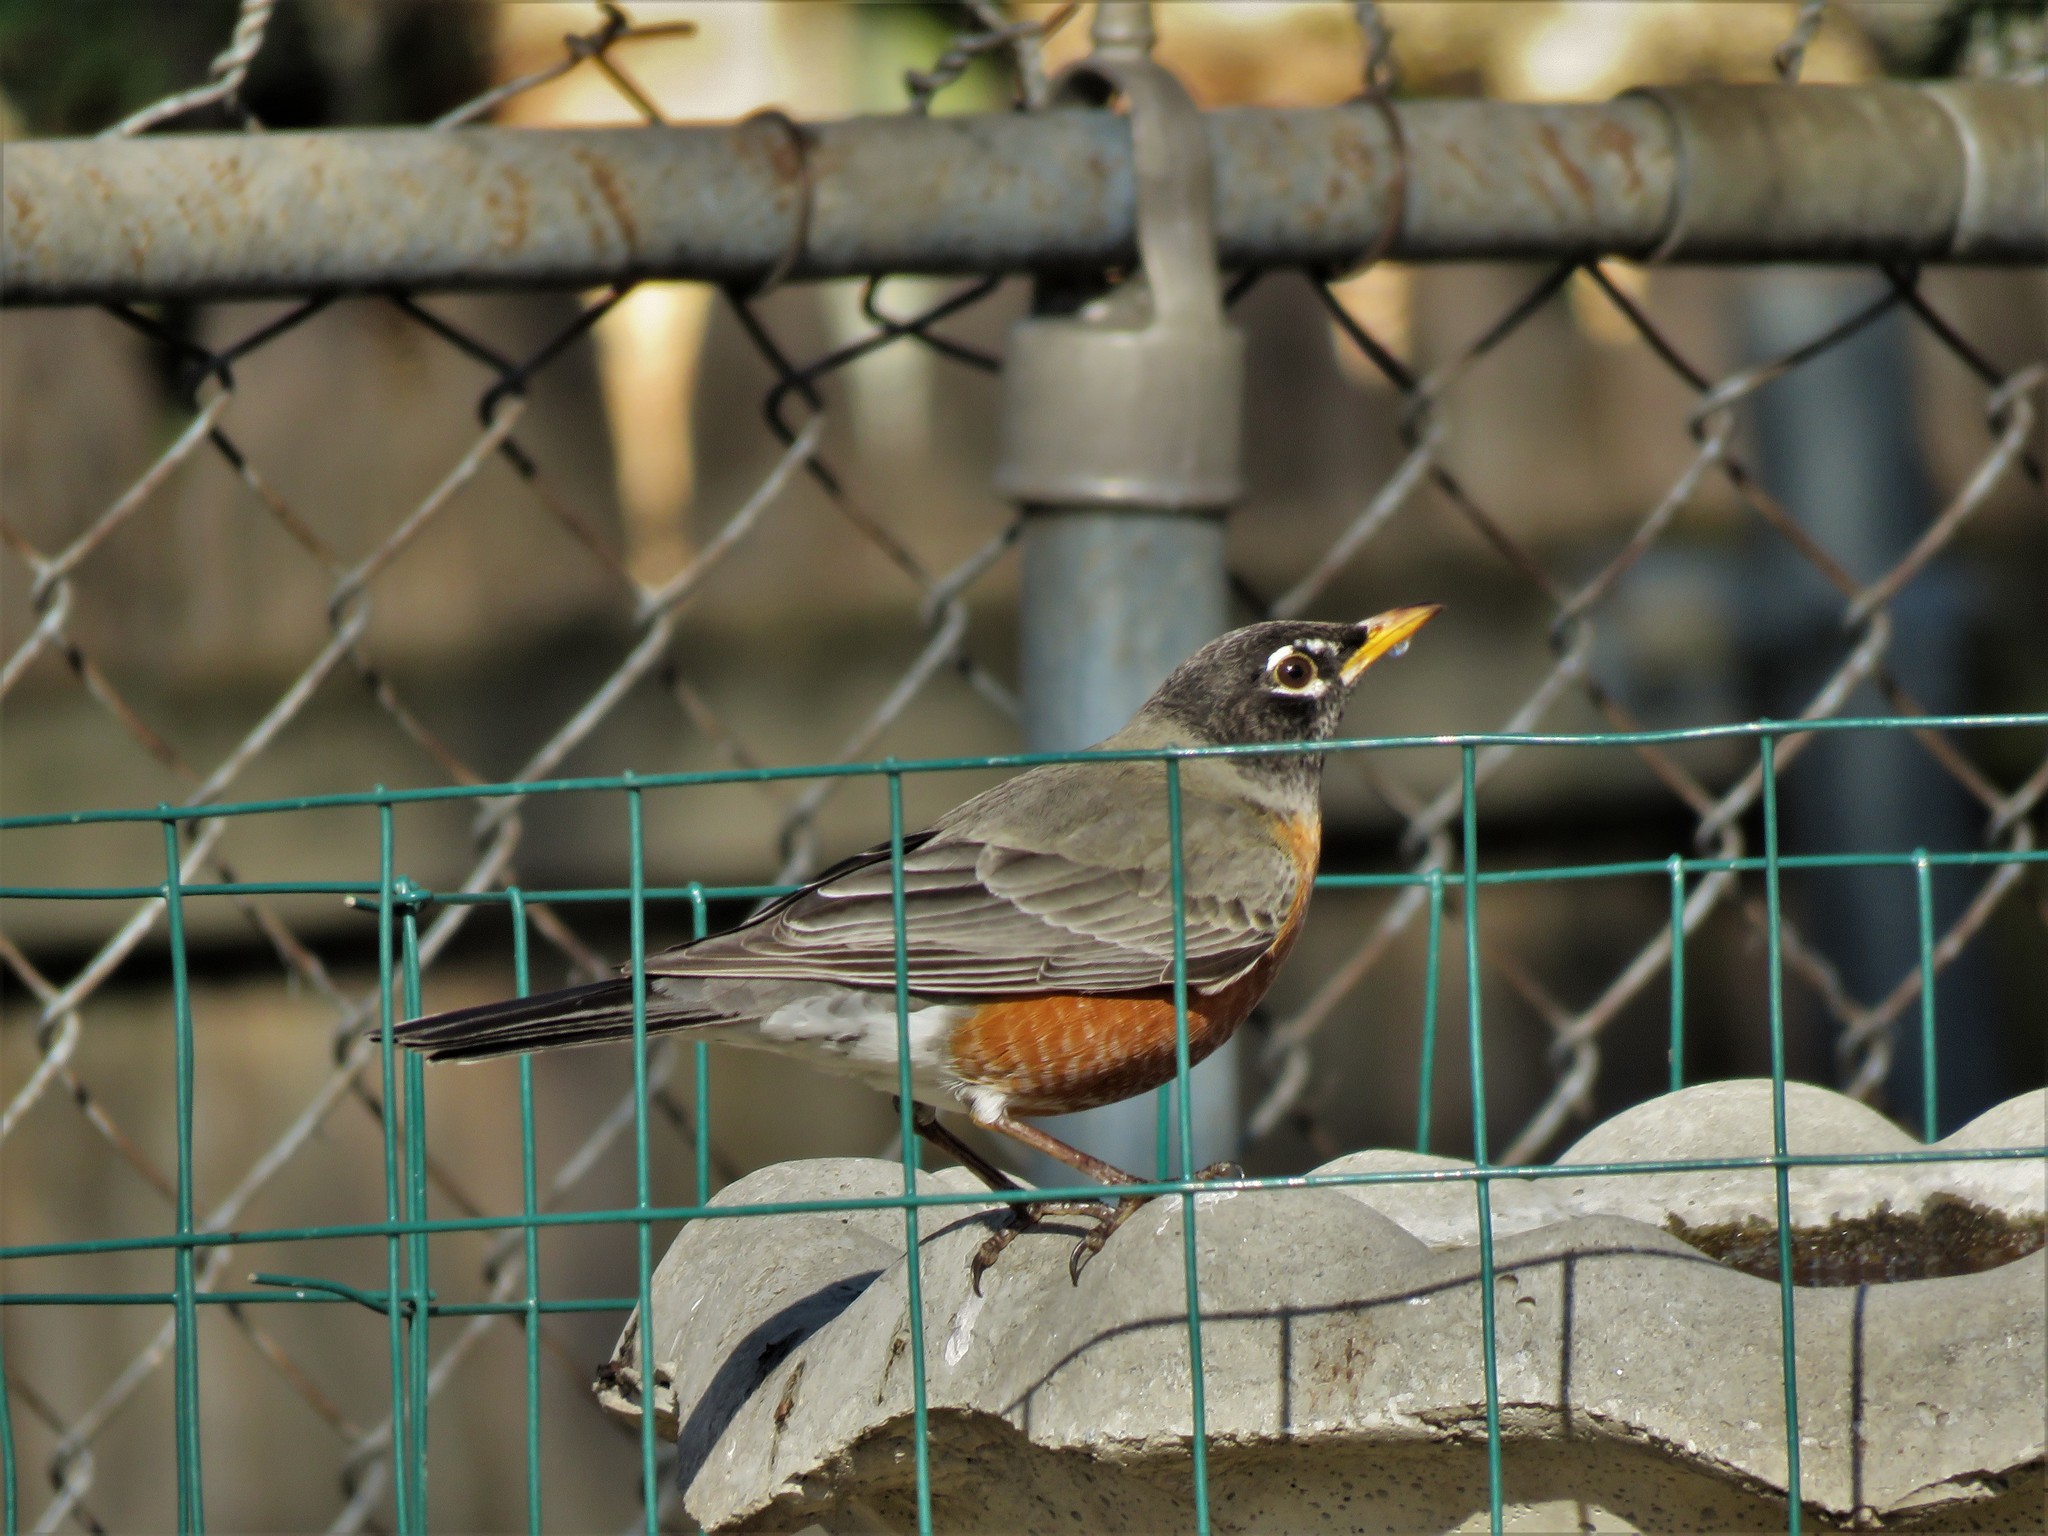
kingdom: Animalia
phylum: Chordata
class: Aves
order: Passeriformes
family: Turdidae
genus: Turdus
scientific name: Turdus migratorius
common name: American robin
